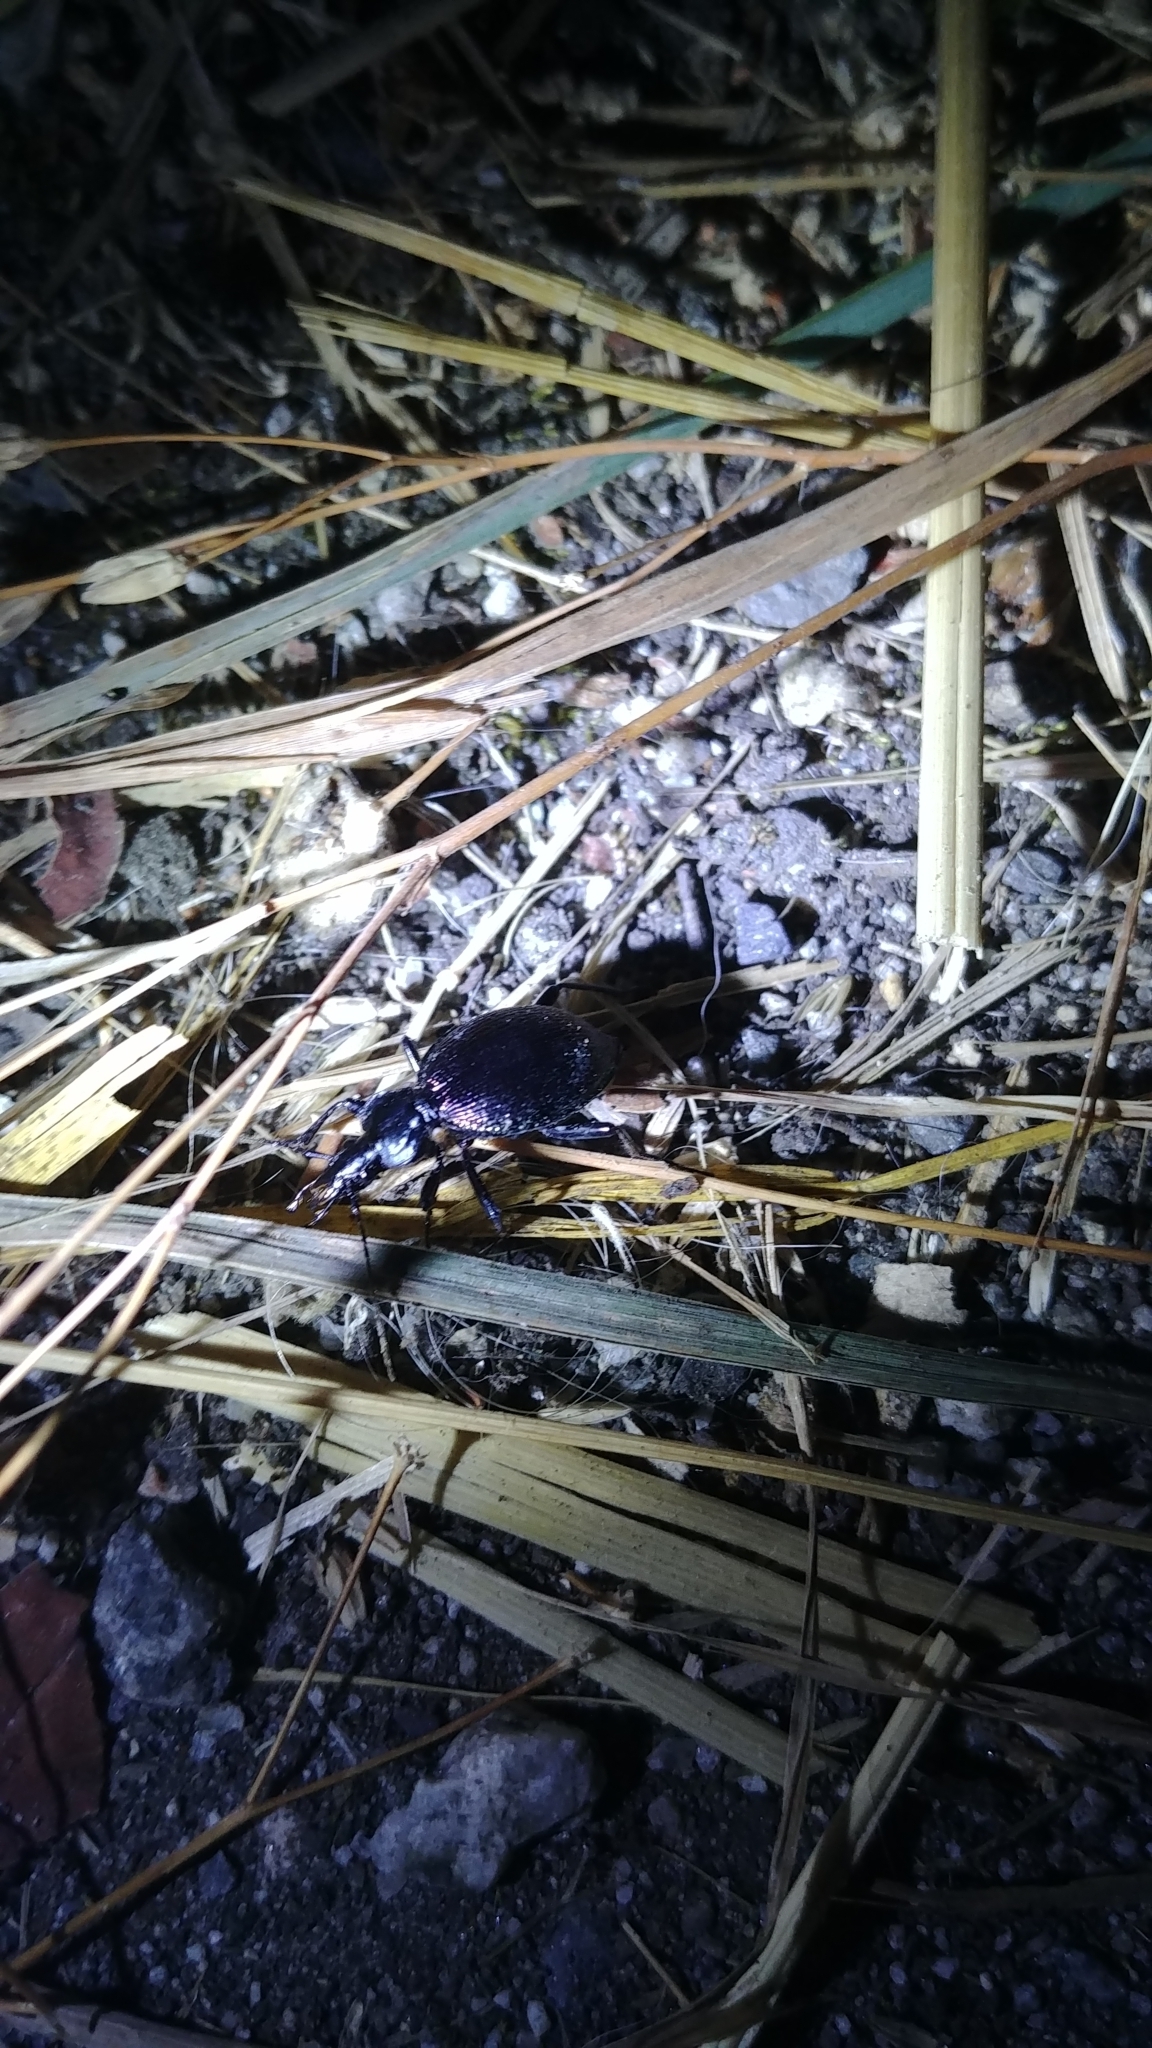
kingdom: Animalia
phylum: Arthropoda
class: Insecta
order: Coleoptera
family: Carabidae
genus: Scaphinotus
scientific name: Scaphinotus marginatus
